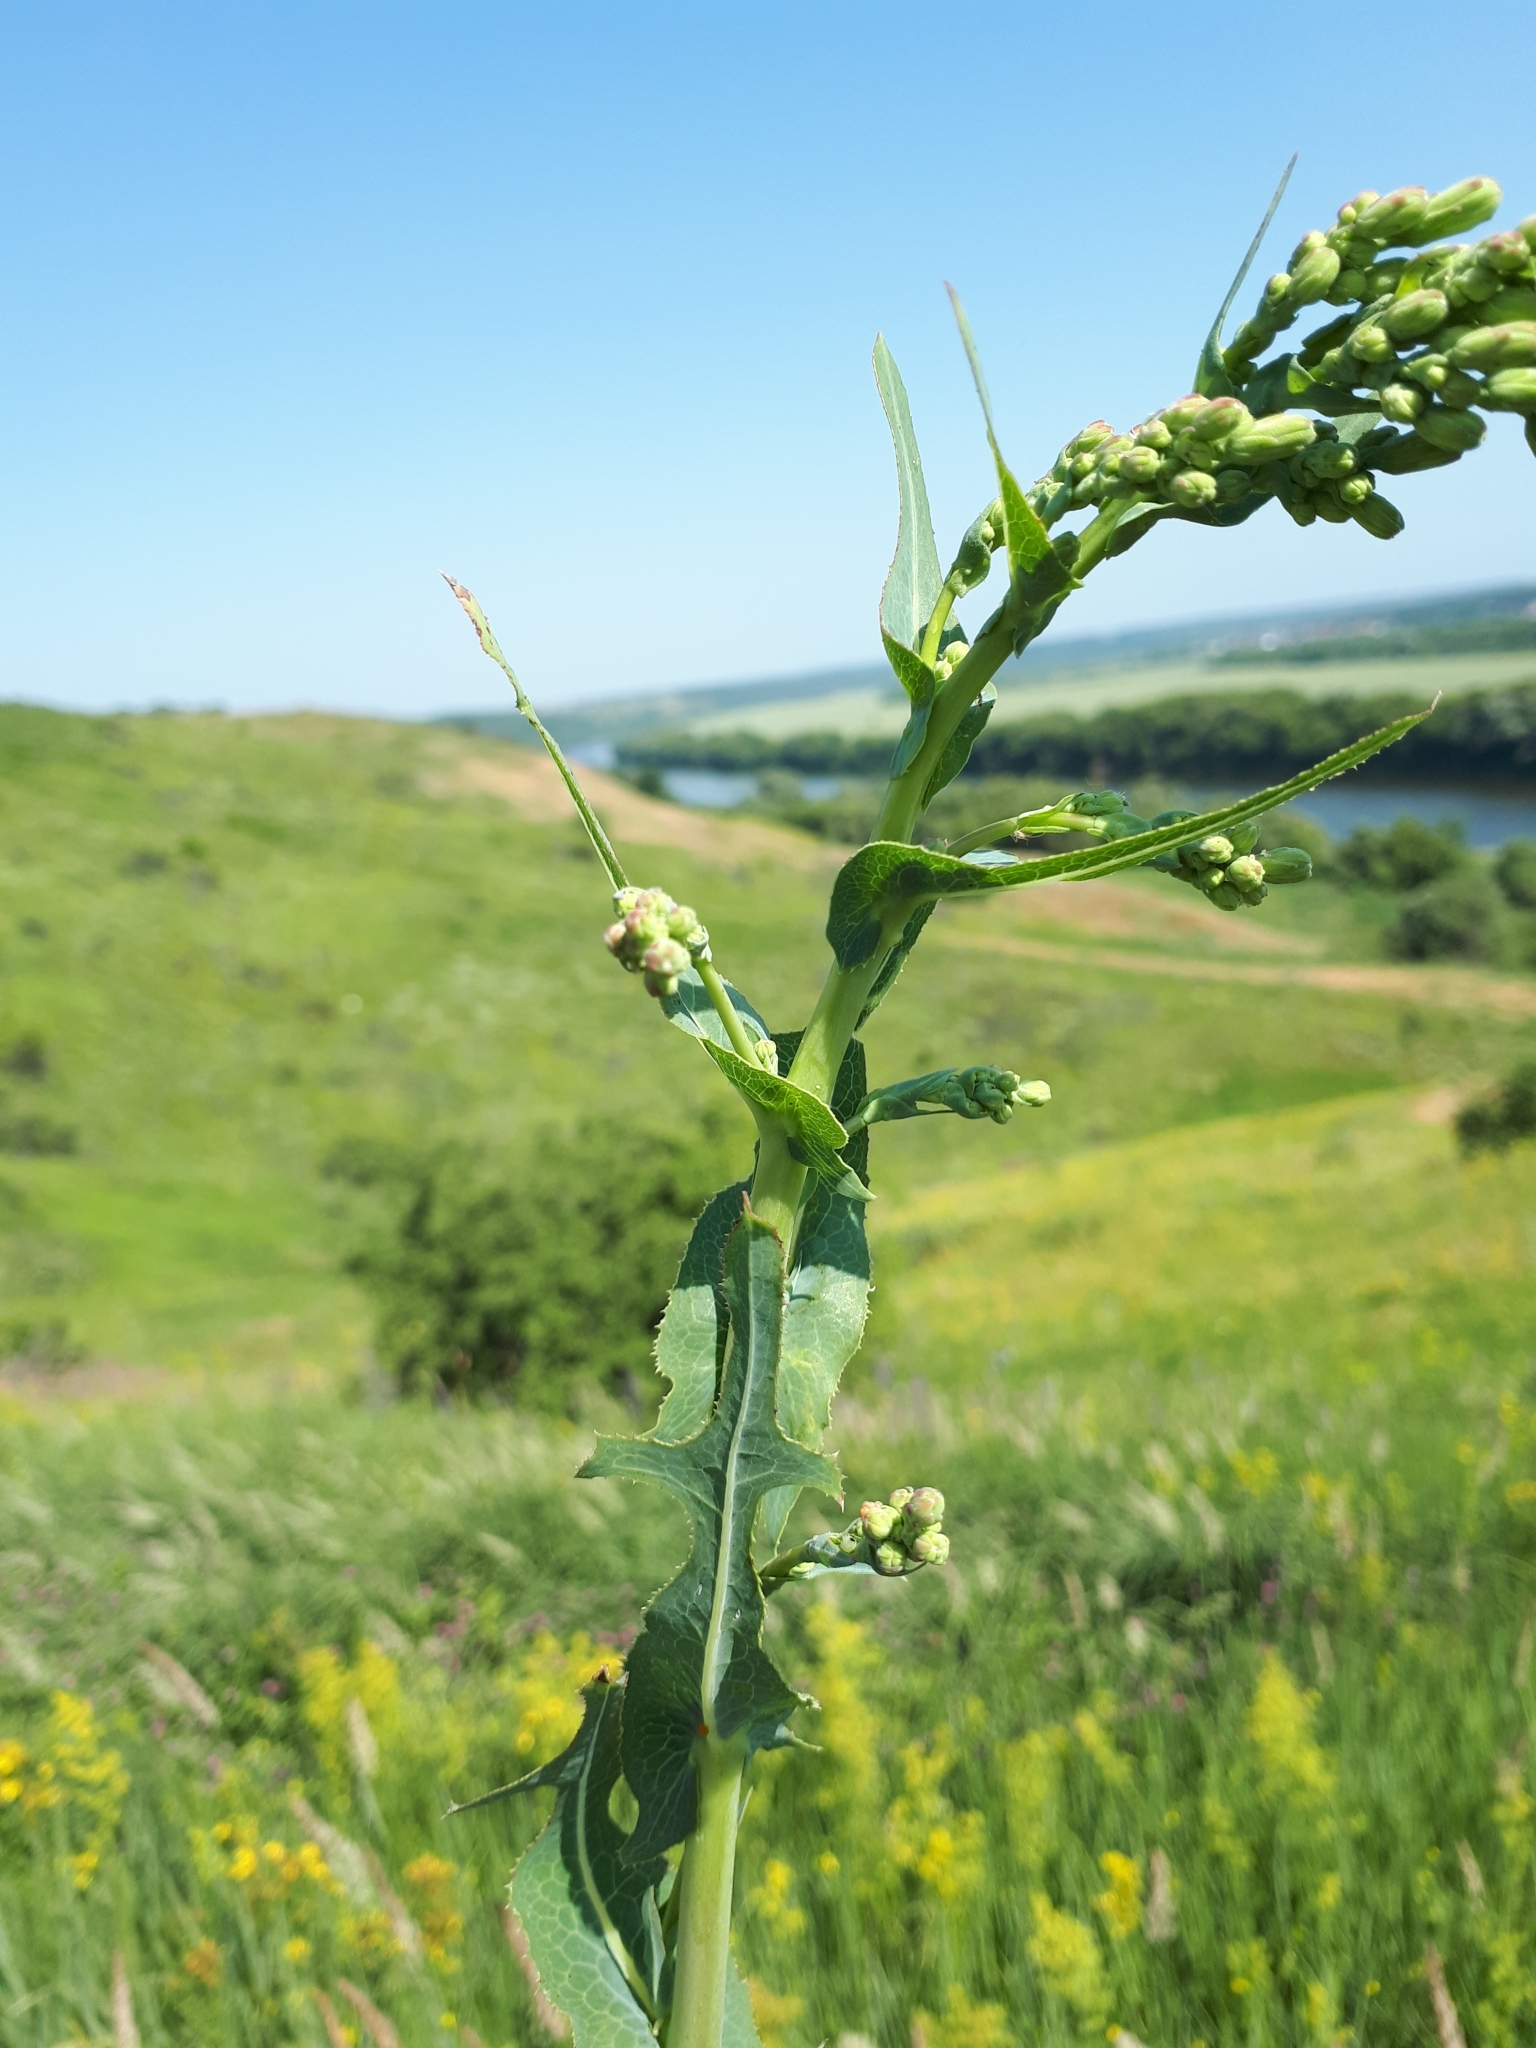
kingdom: Plantae
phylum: Tracheophyta
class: Magnoliopsida
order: Asterales
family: Asteraceae
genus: Lactuca
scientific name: Lactuca serriola
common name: Prickly lettuce
